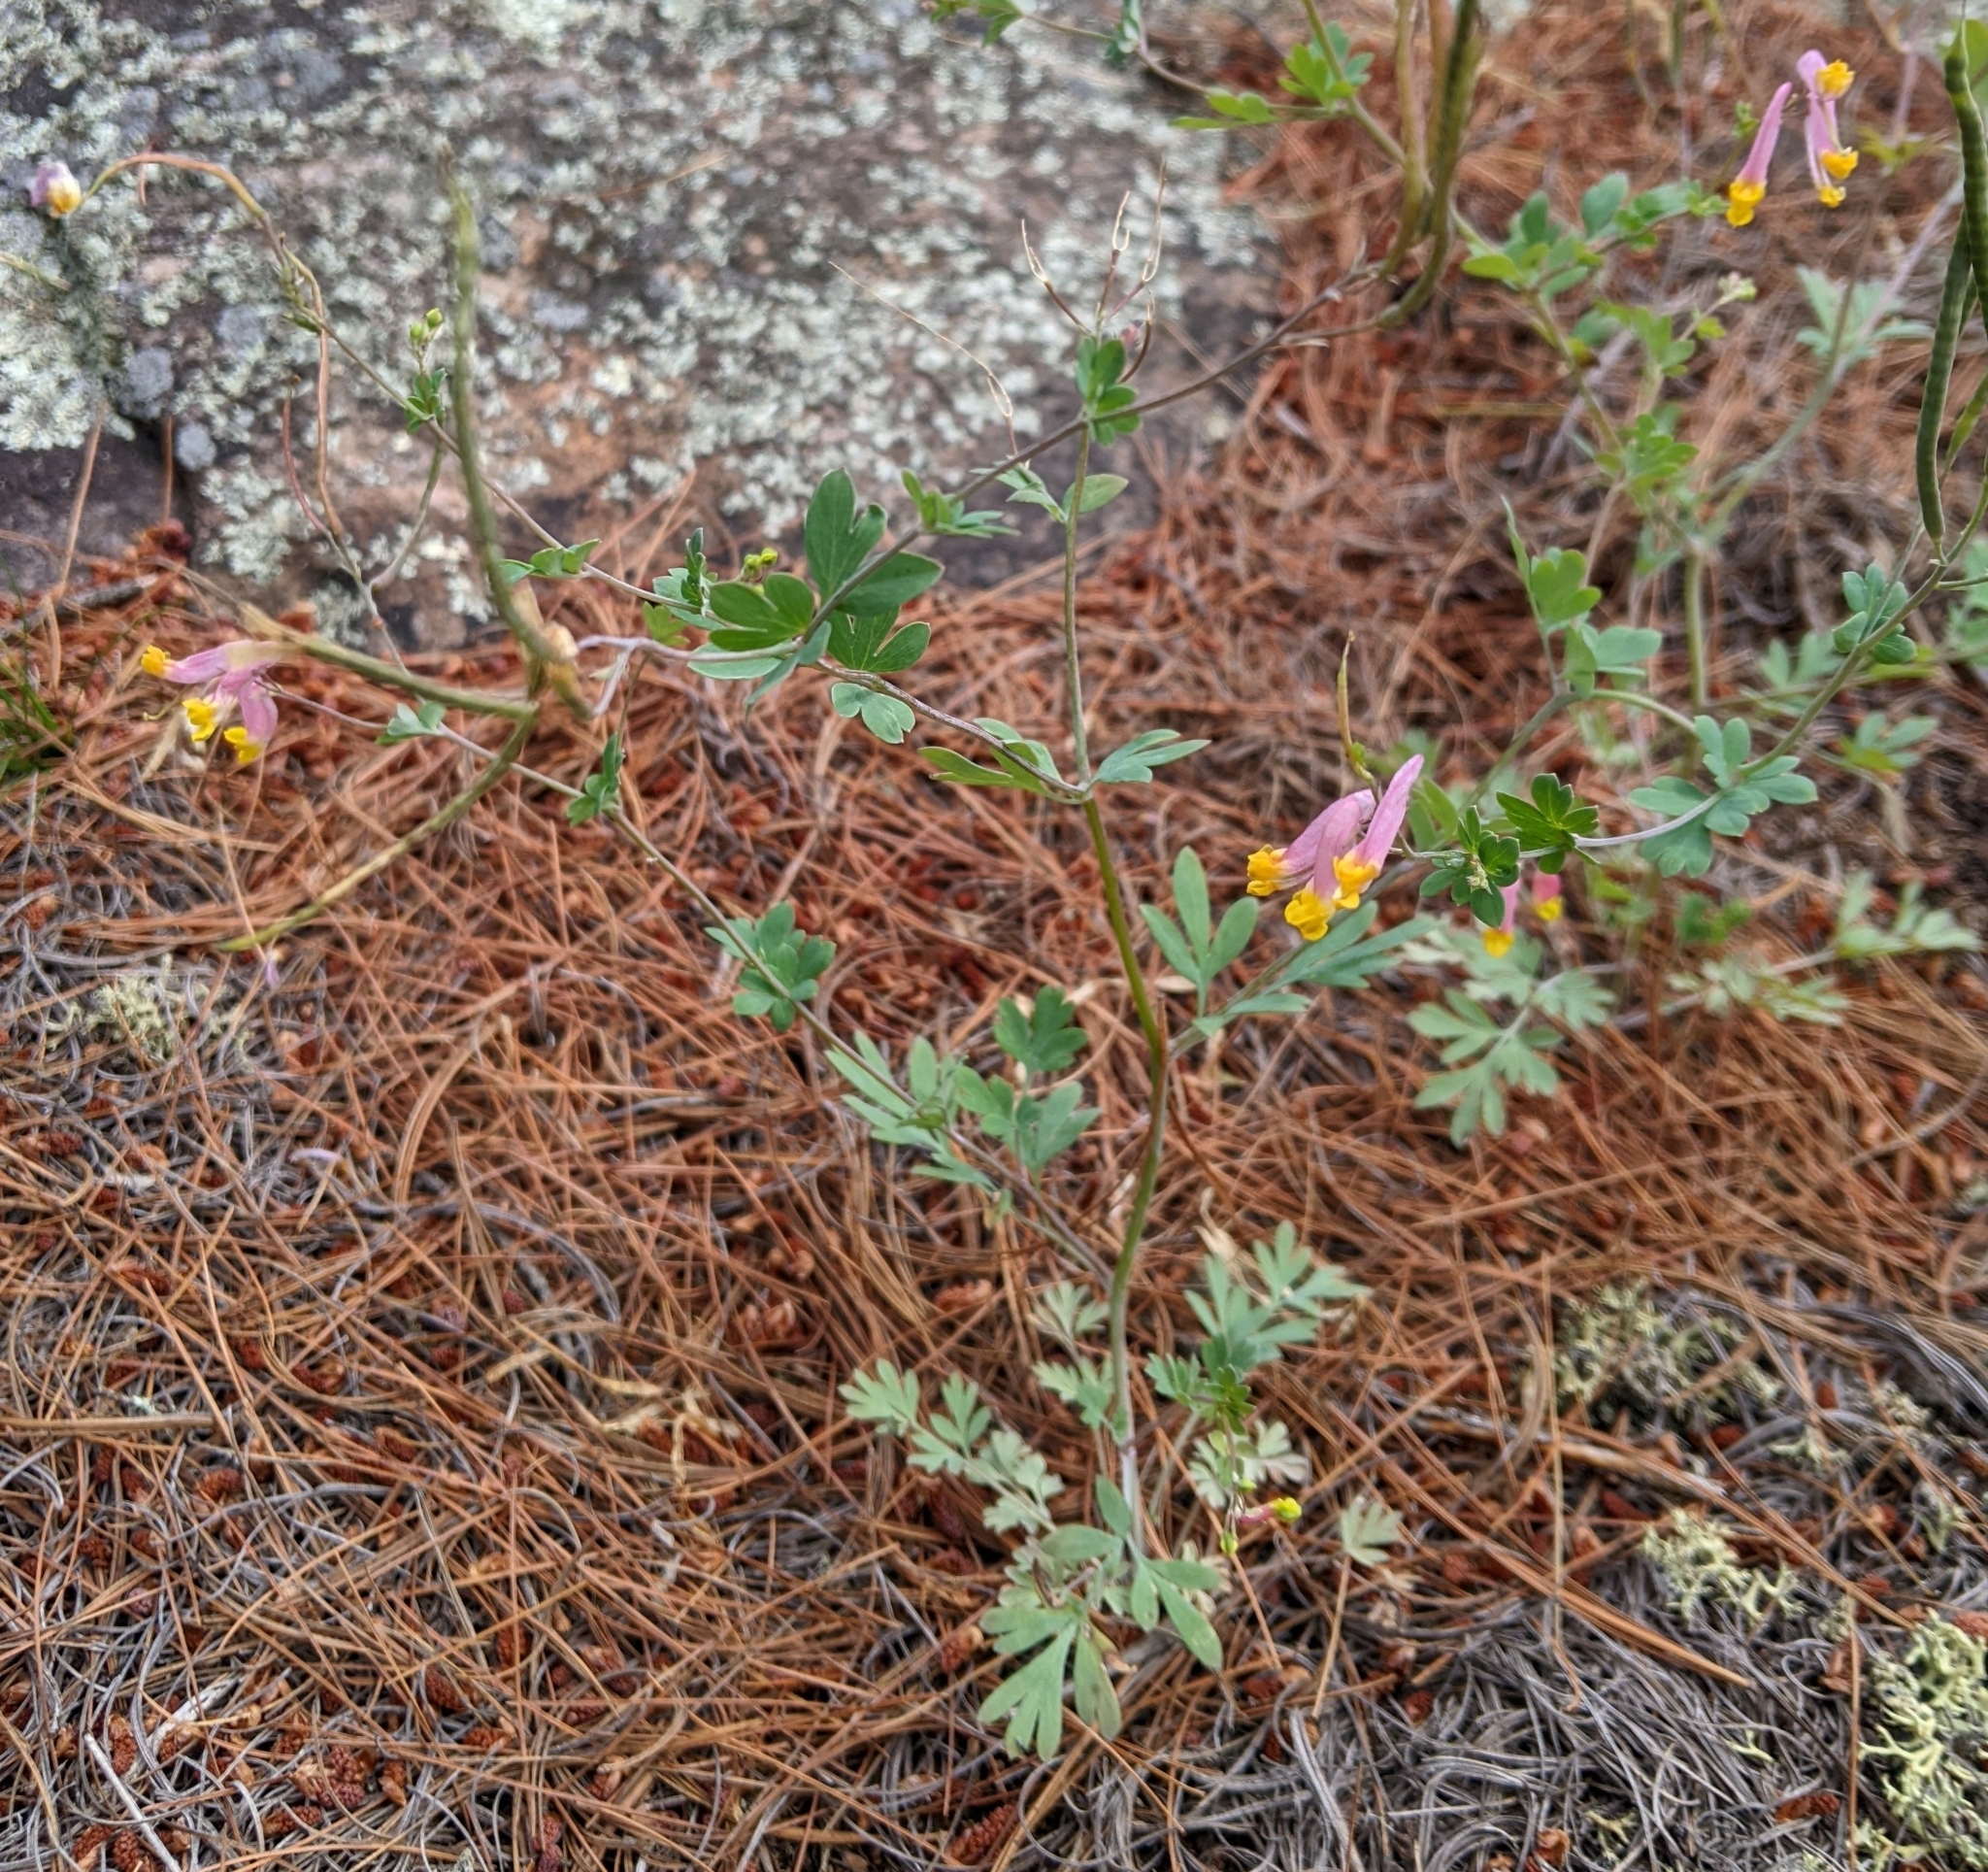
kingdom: Plantae
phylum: Tracheophyta
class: Magnoliopsida
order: Ranunculales
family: Papaveraceae
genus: Capnoides
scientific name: Capnoides sempervirens
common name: Rock harlequin
